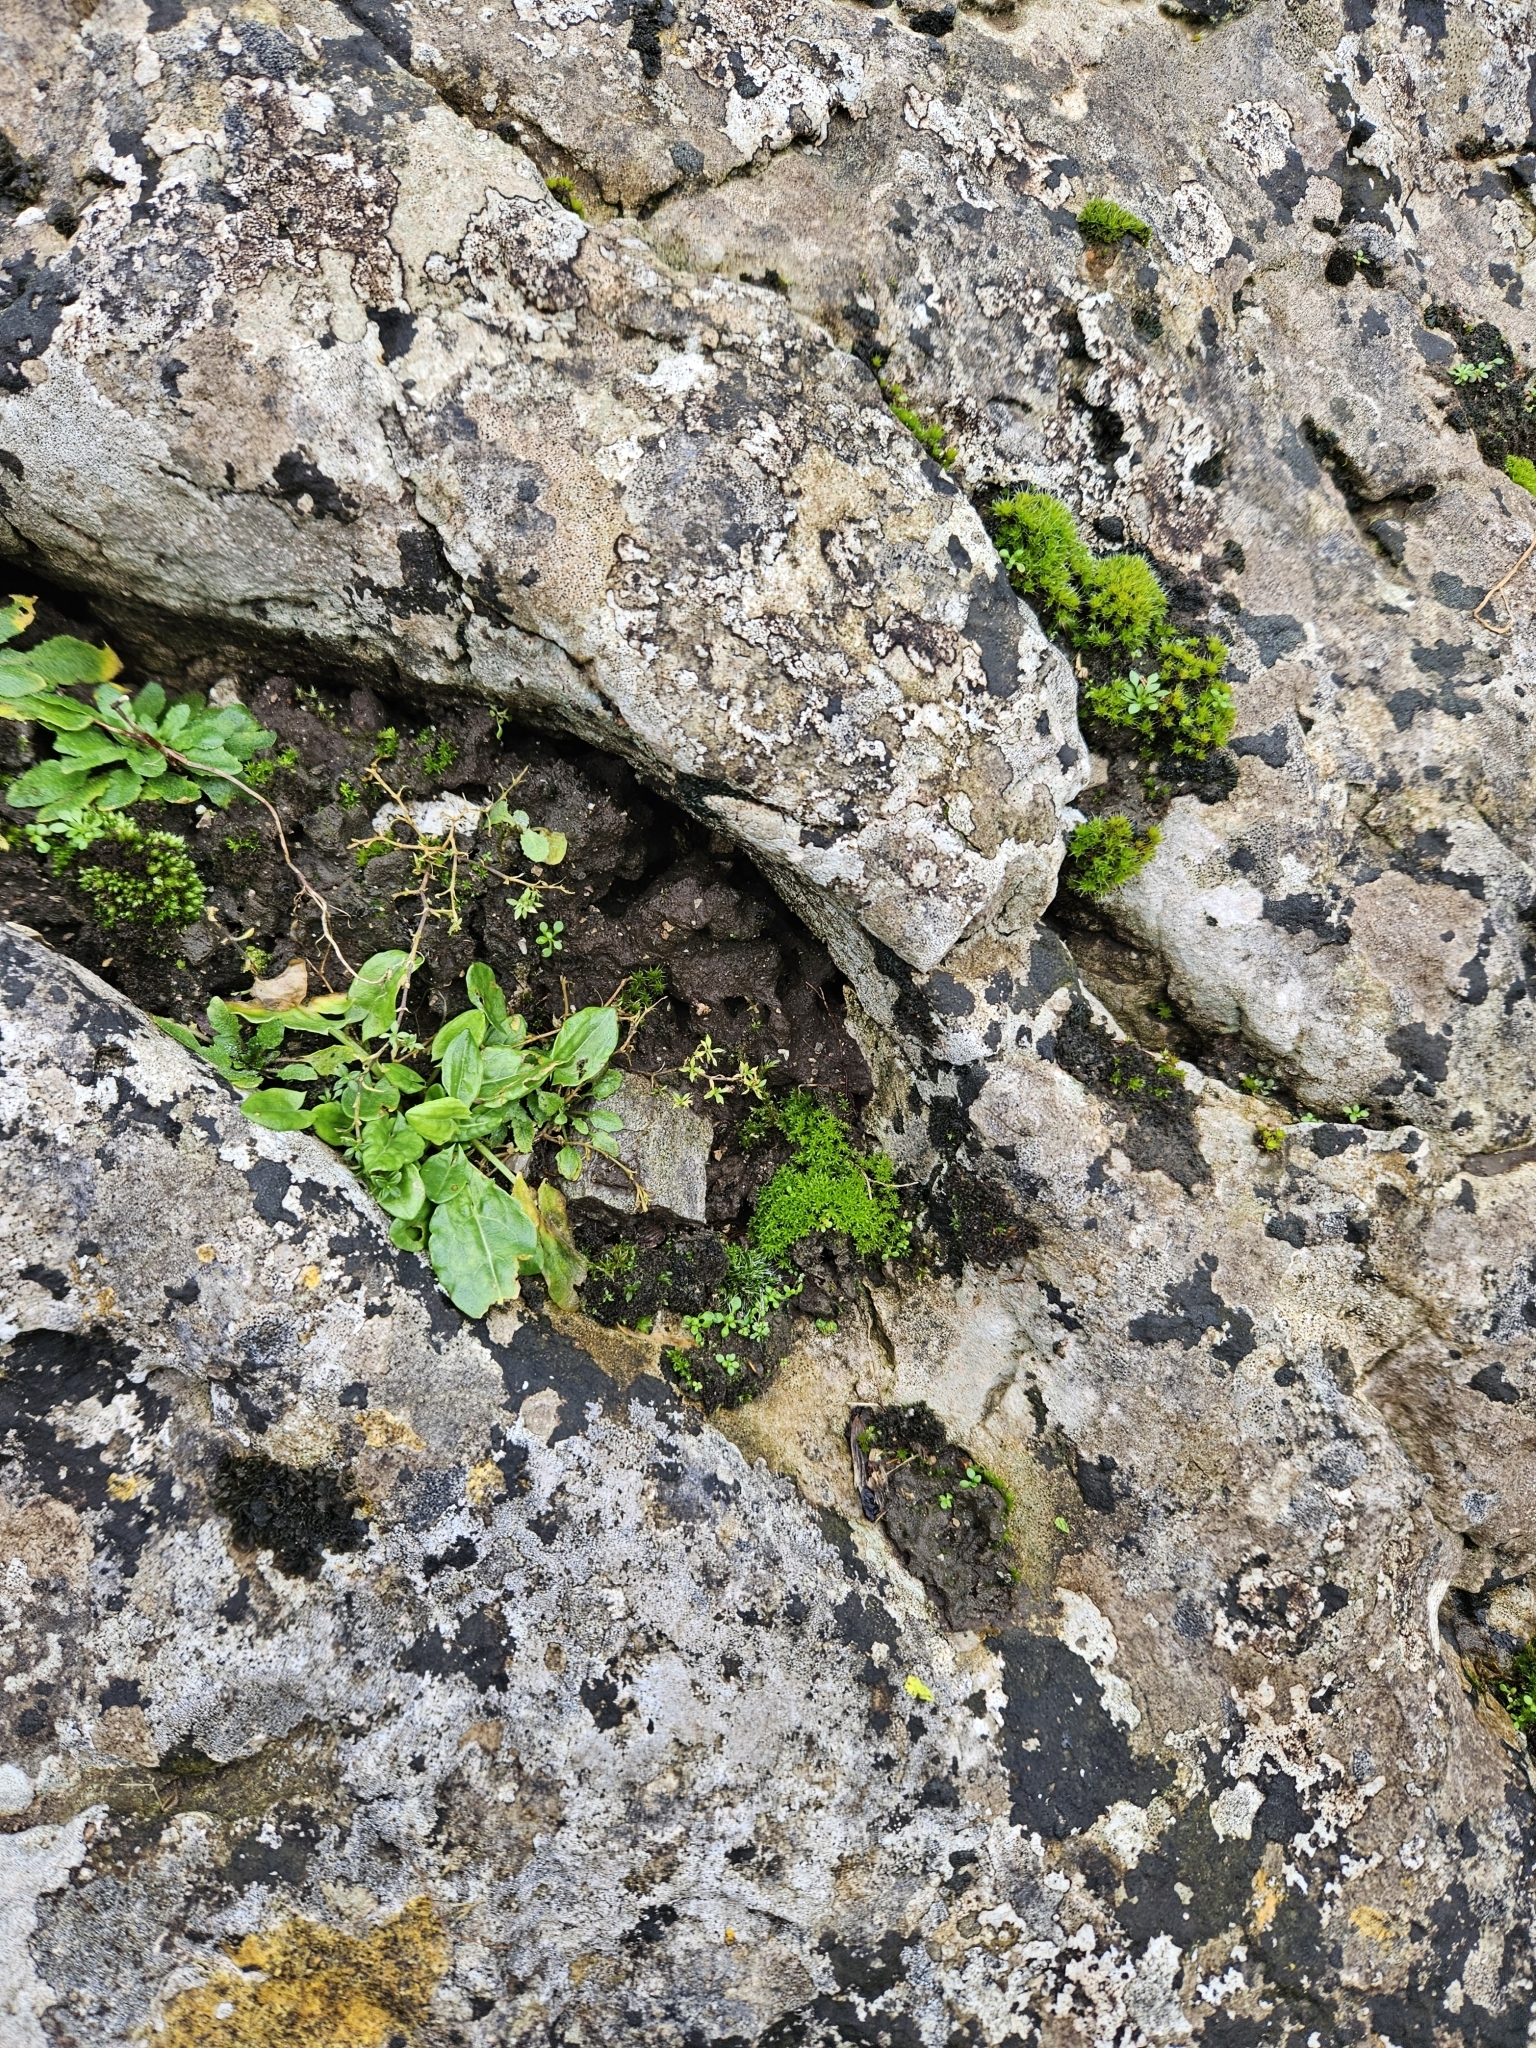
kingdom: Plantae
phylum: Bryophyta
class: Bryopsida
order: Pottiales
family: Pottiaceae
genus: Barbula
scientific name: Barbula unguiculata
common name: Prickly beard moss
